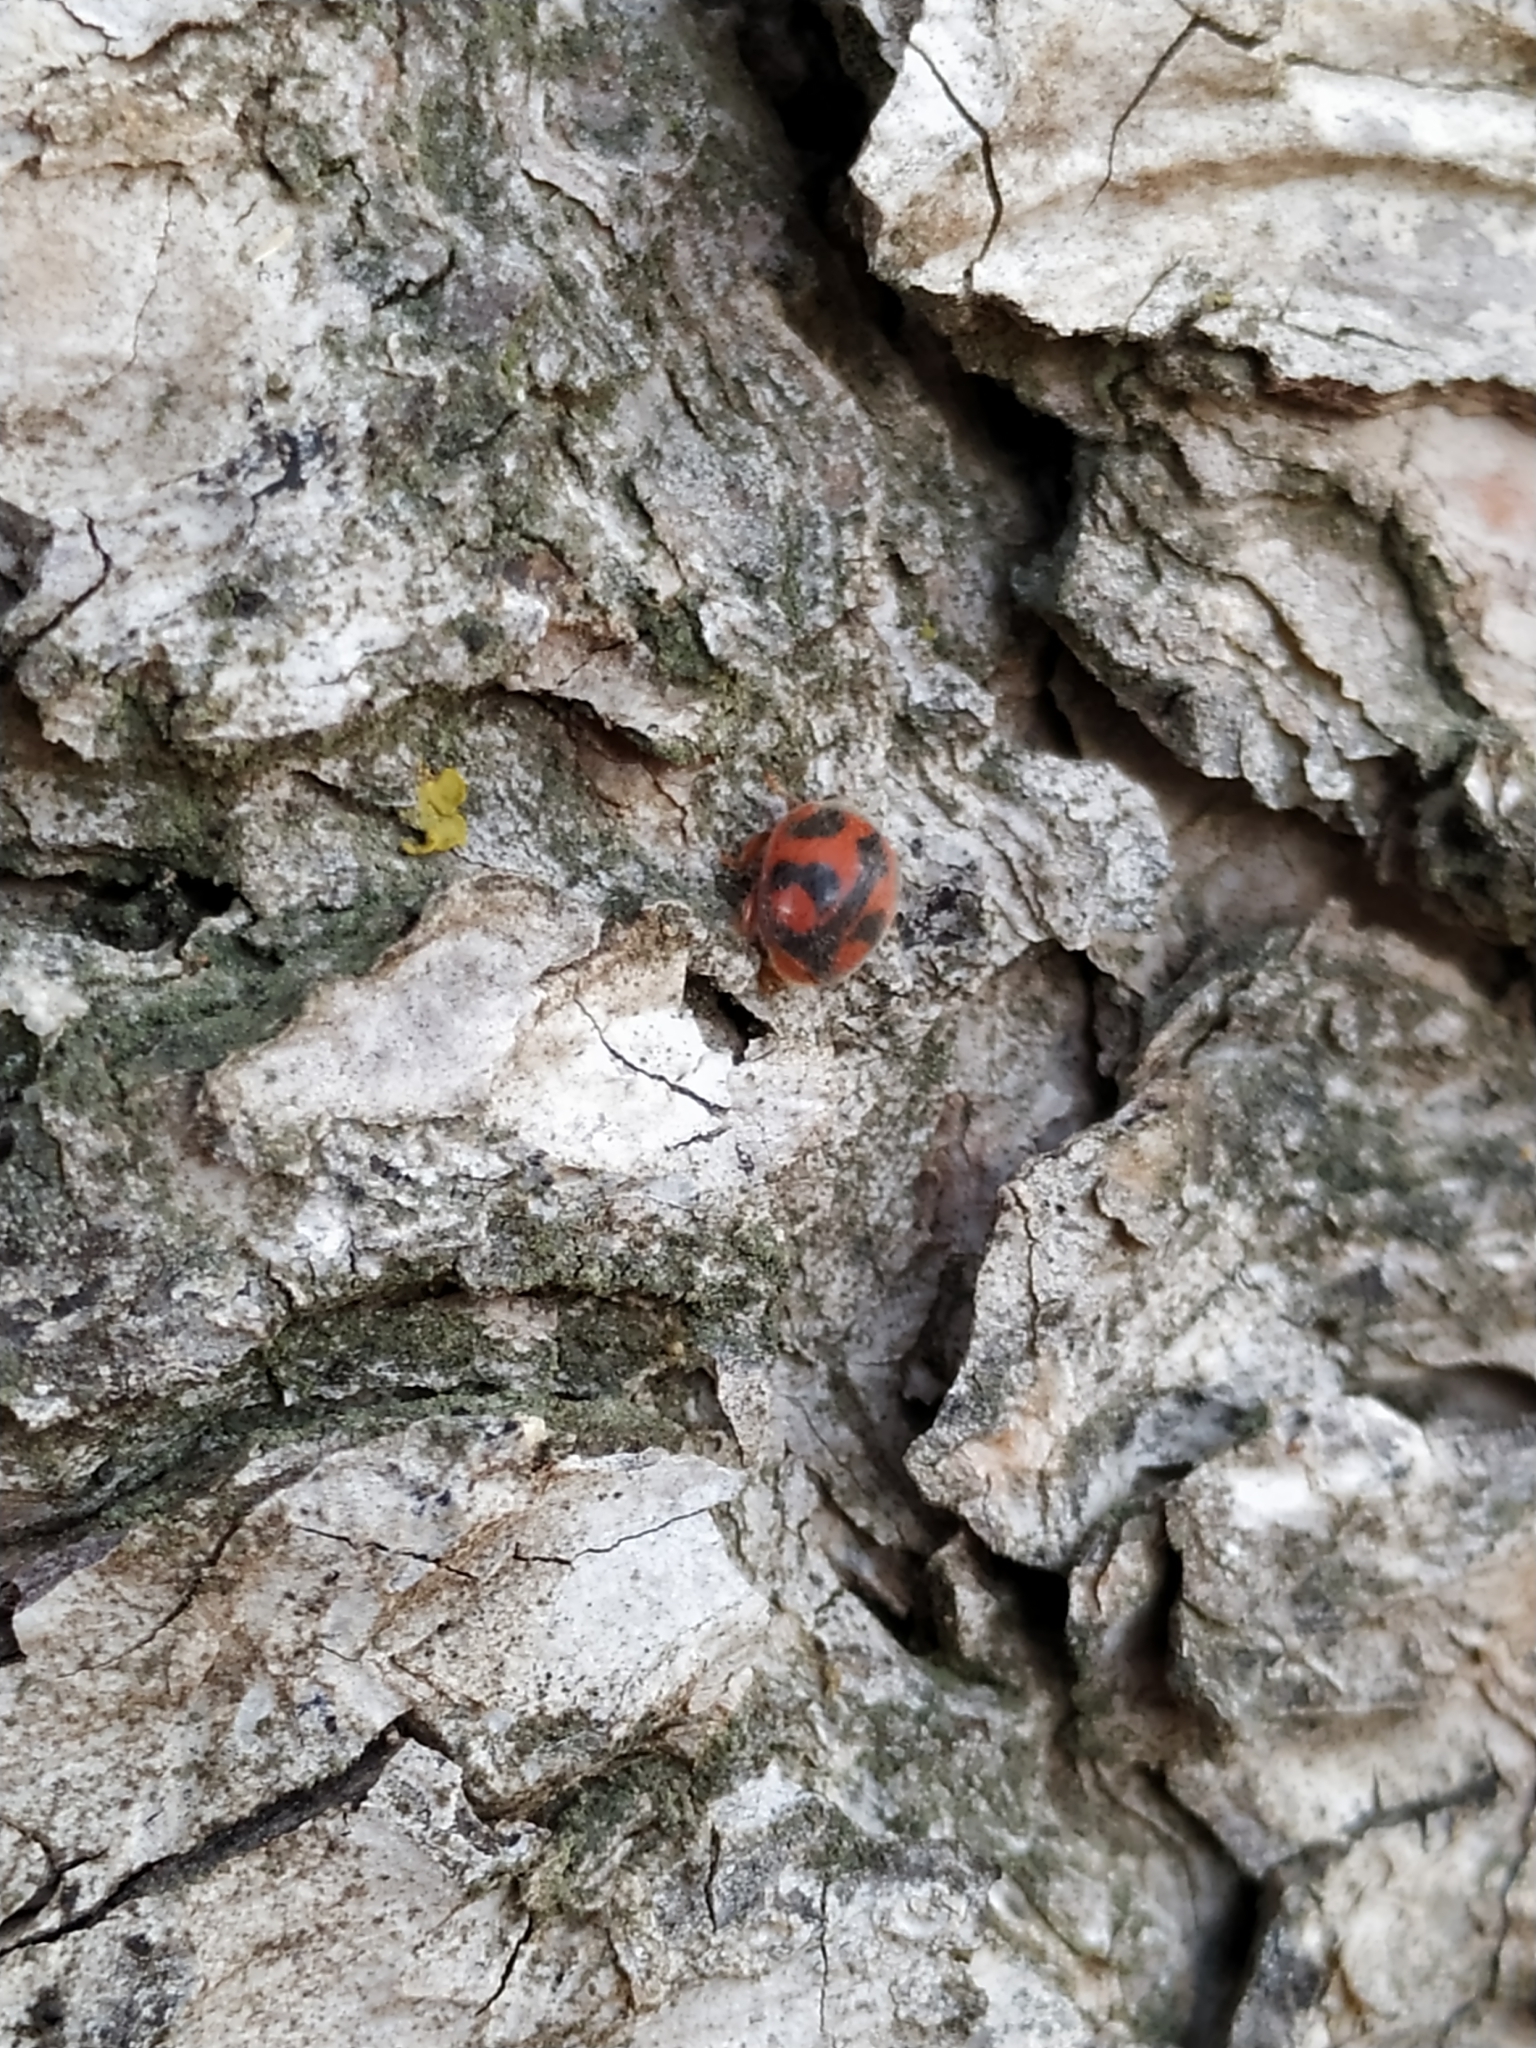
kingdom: Animalia
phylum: Arthropoda
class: Insecta
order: Coleoptera
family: Coccinellidae
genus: Novius
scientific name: Novius cardinalis
